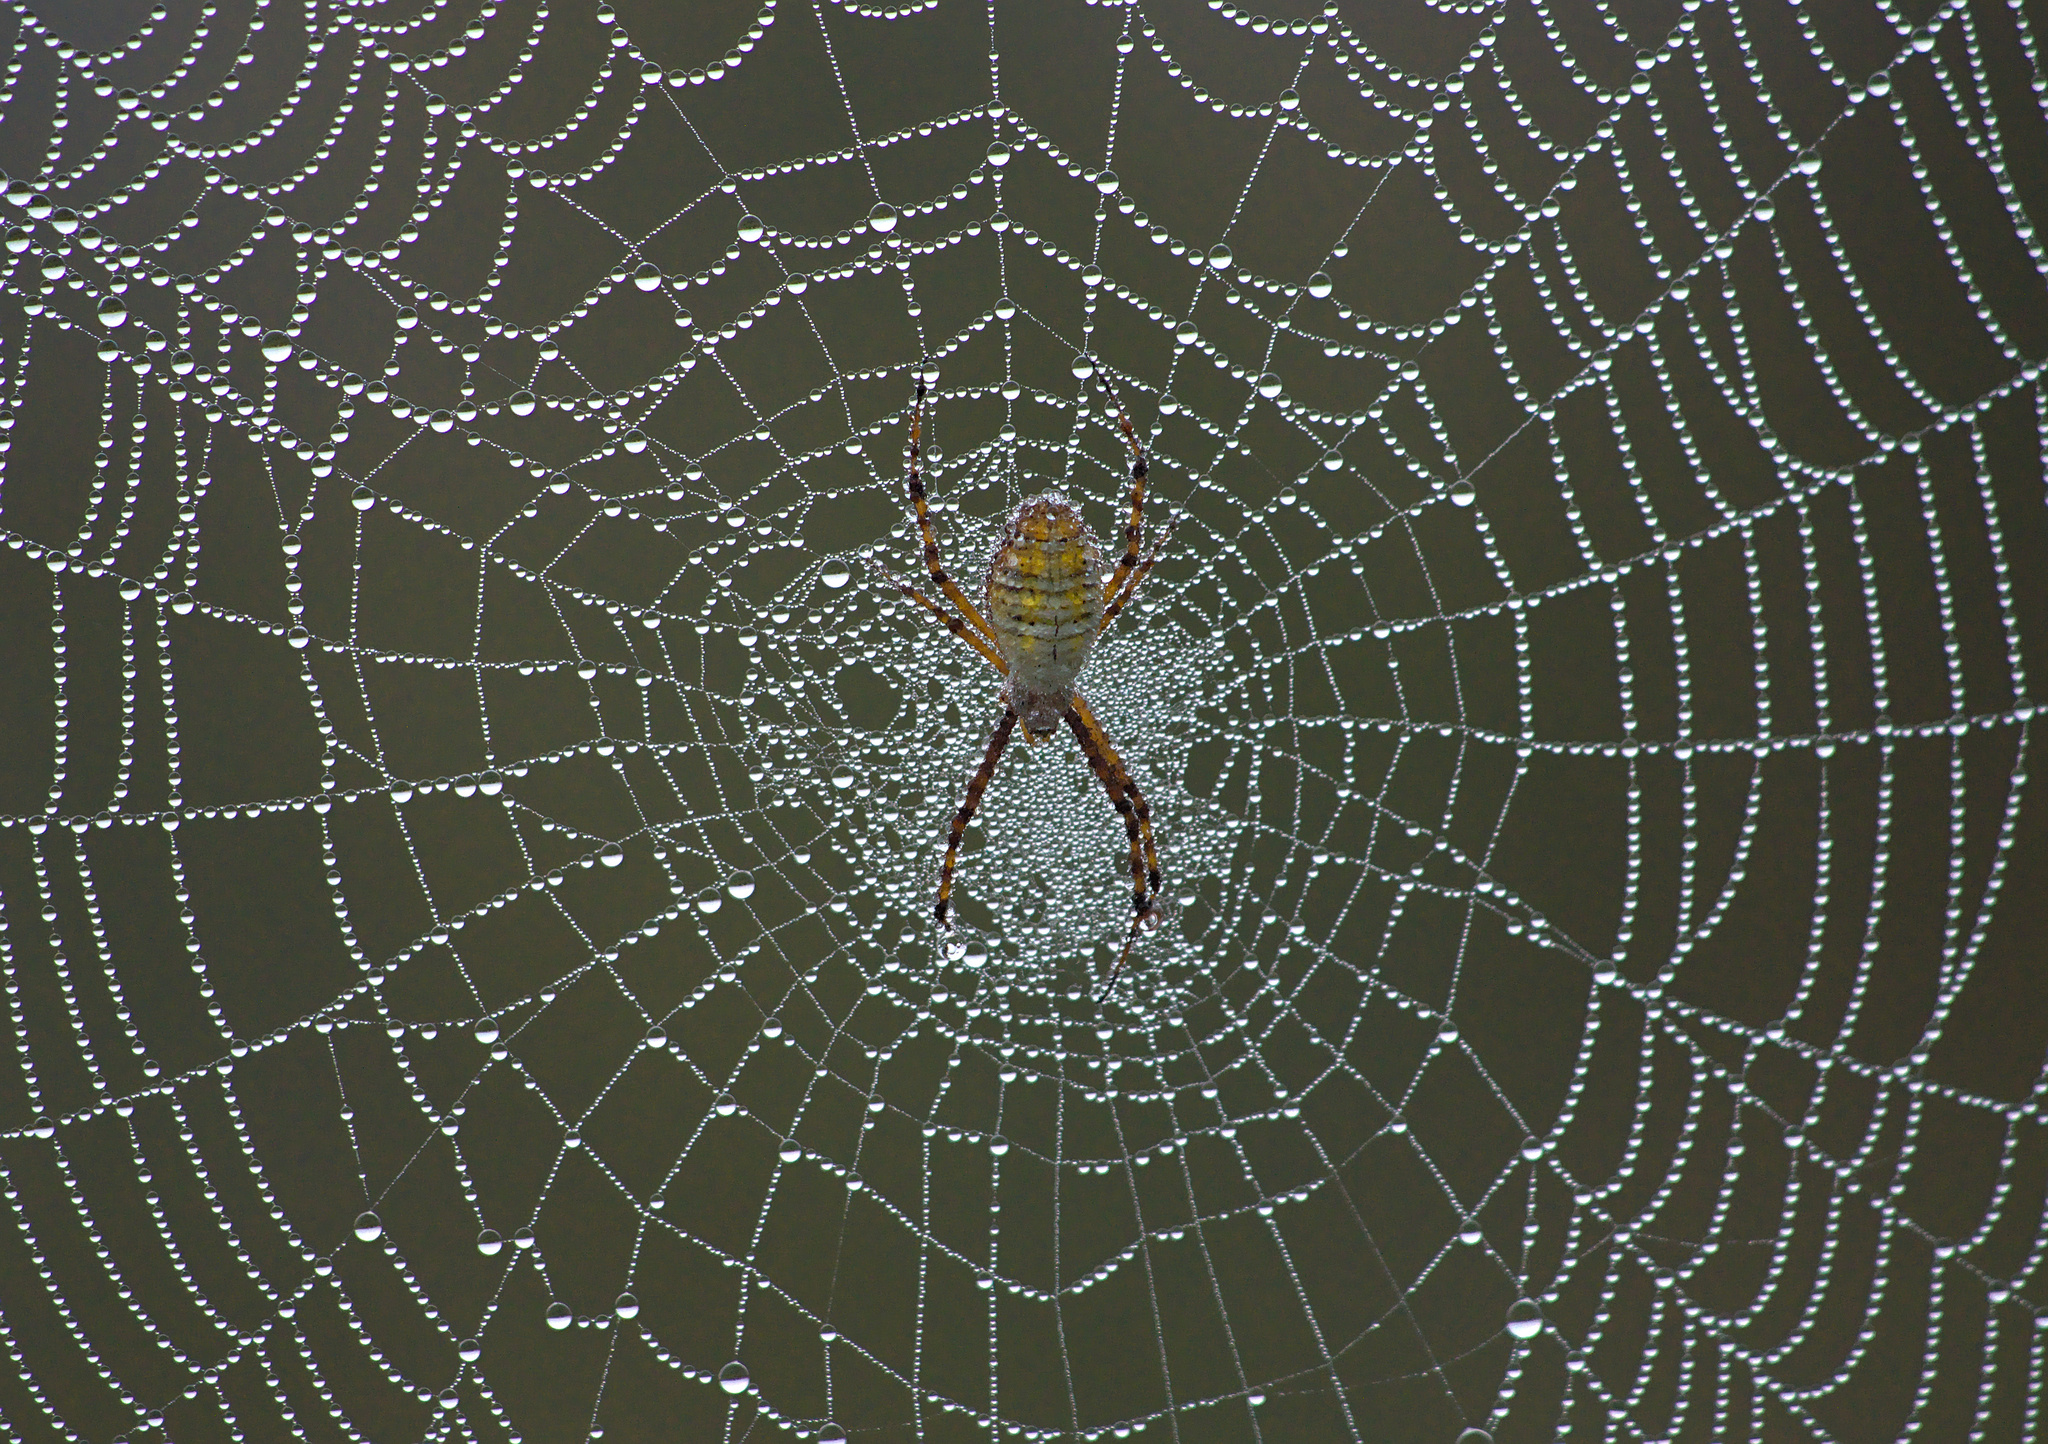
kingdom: Animalia
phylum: Arthropoda
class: Arachnida
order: Araneae
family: Araneidae
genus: Argiope
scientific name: Argiope trifasciata
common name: Banded garden spider
